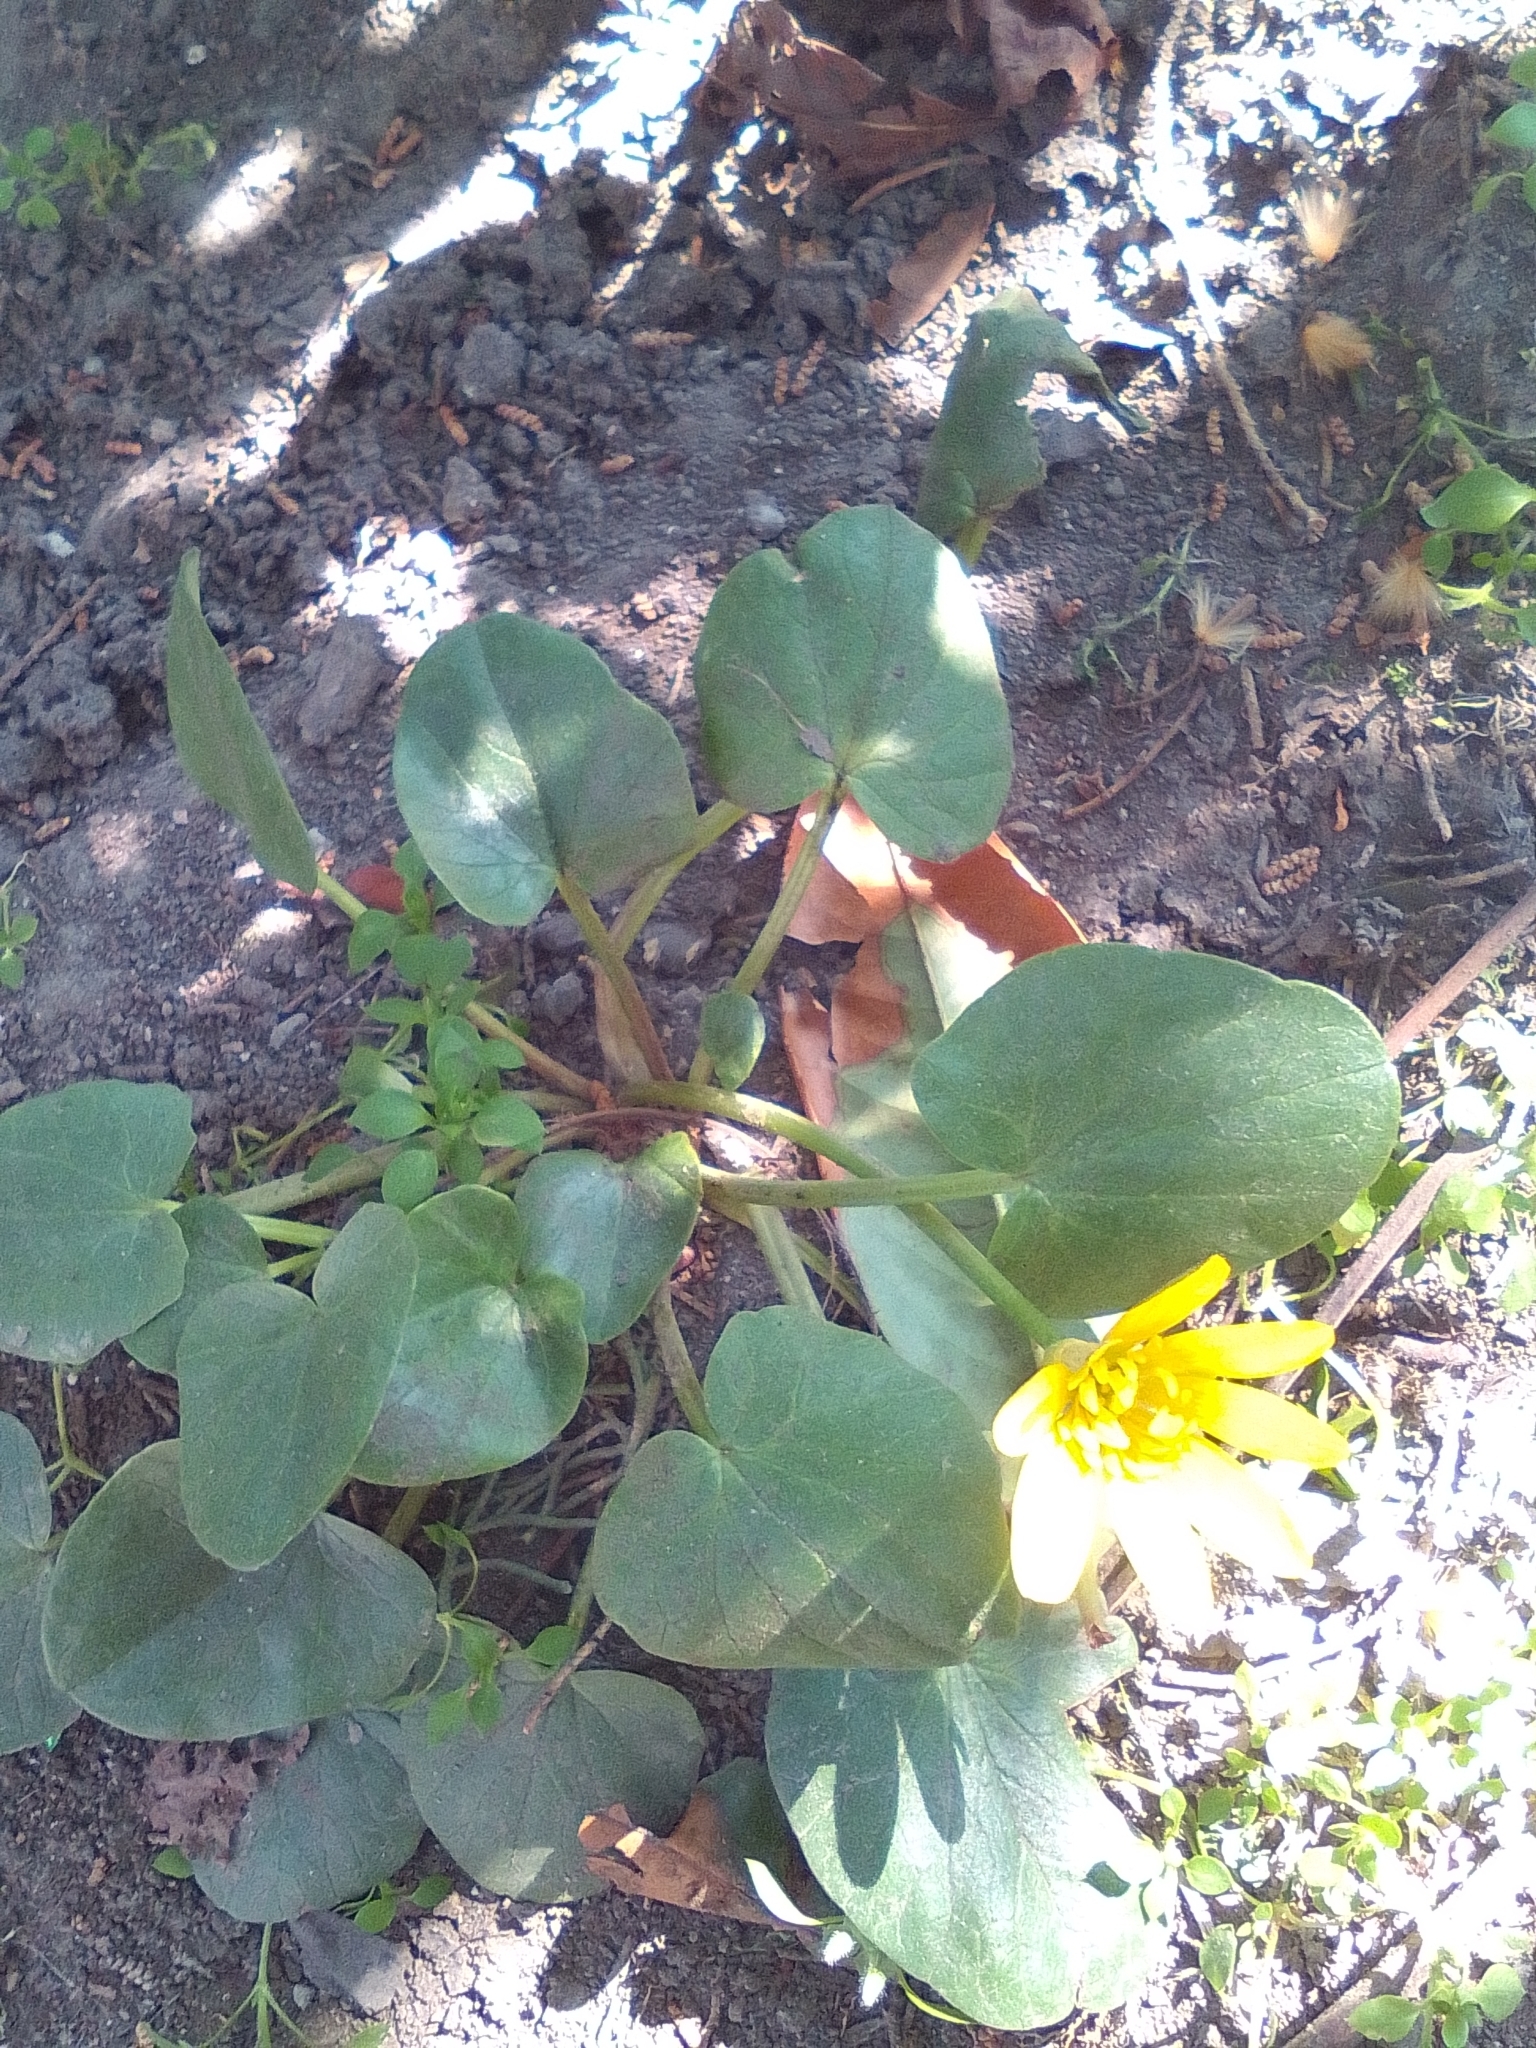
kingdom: Plantae
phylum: Tracheophyta
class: Magnoliopsida
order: Ranunculales
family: Ranunculaceae
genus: Ficaria
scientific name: Ficaria verna
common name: Lesser celandine
